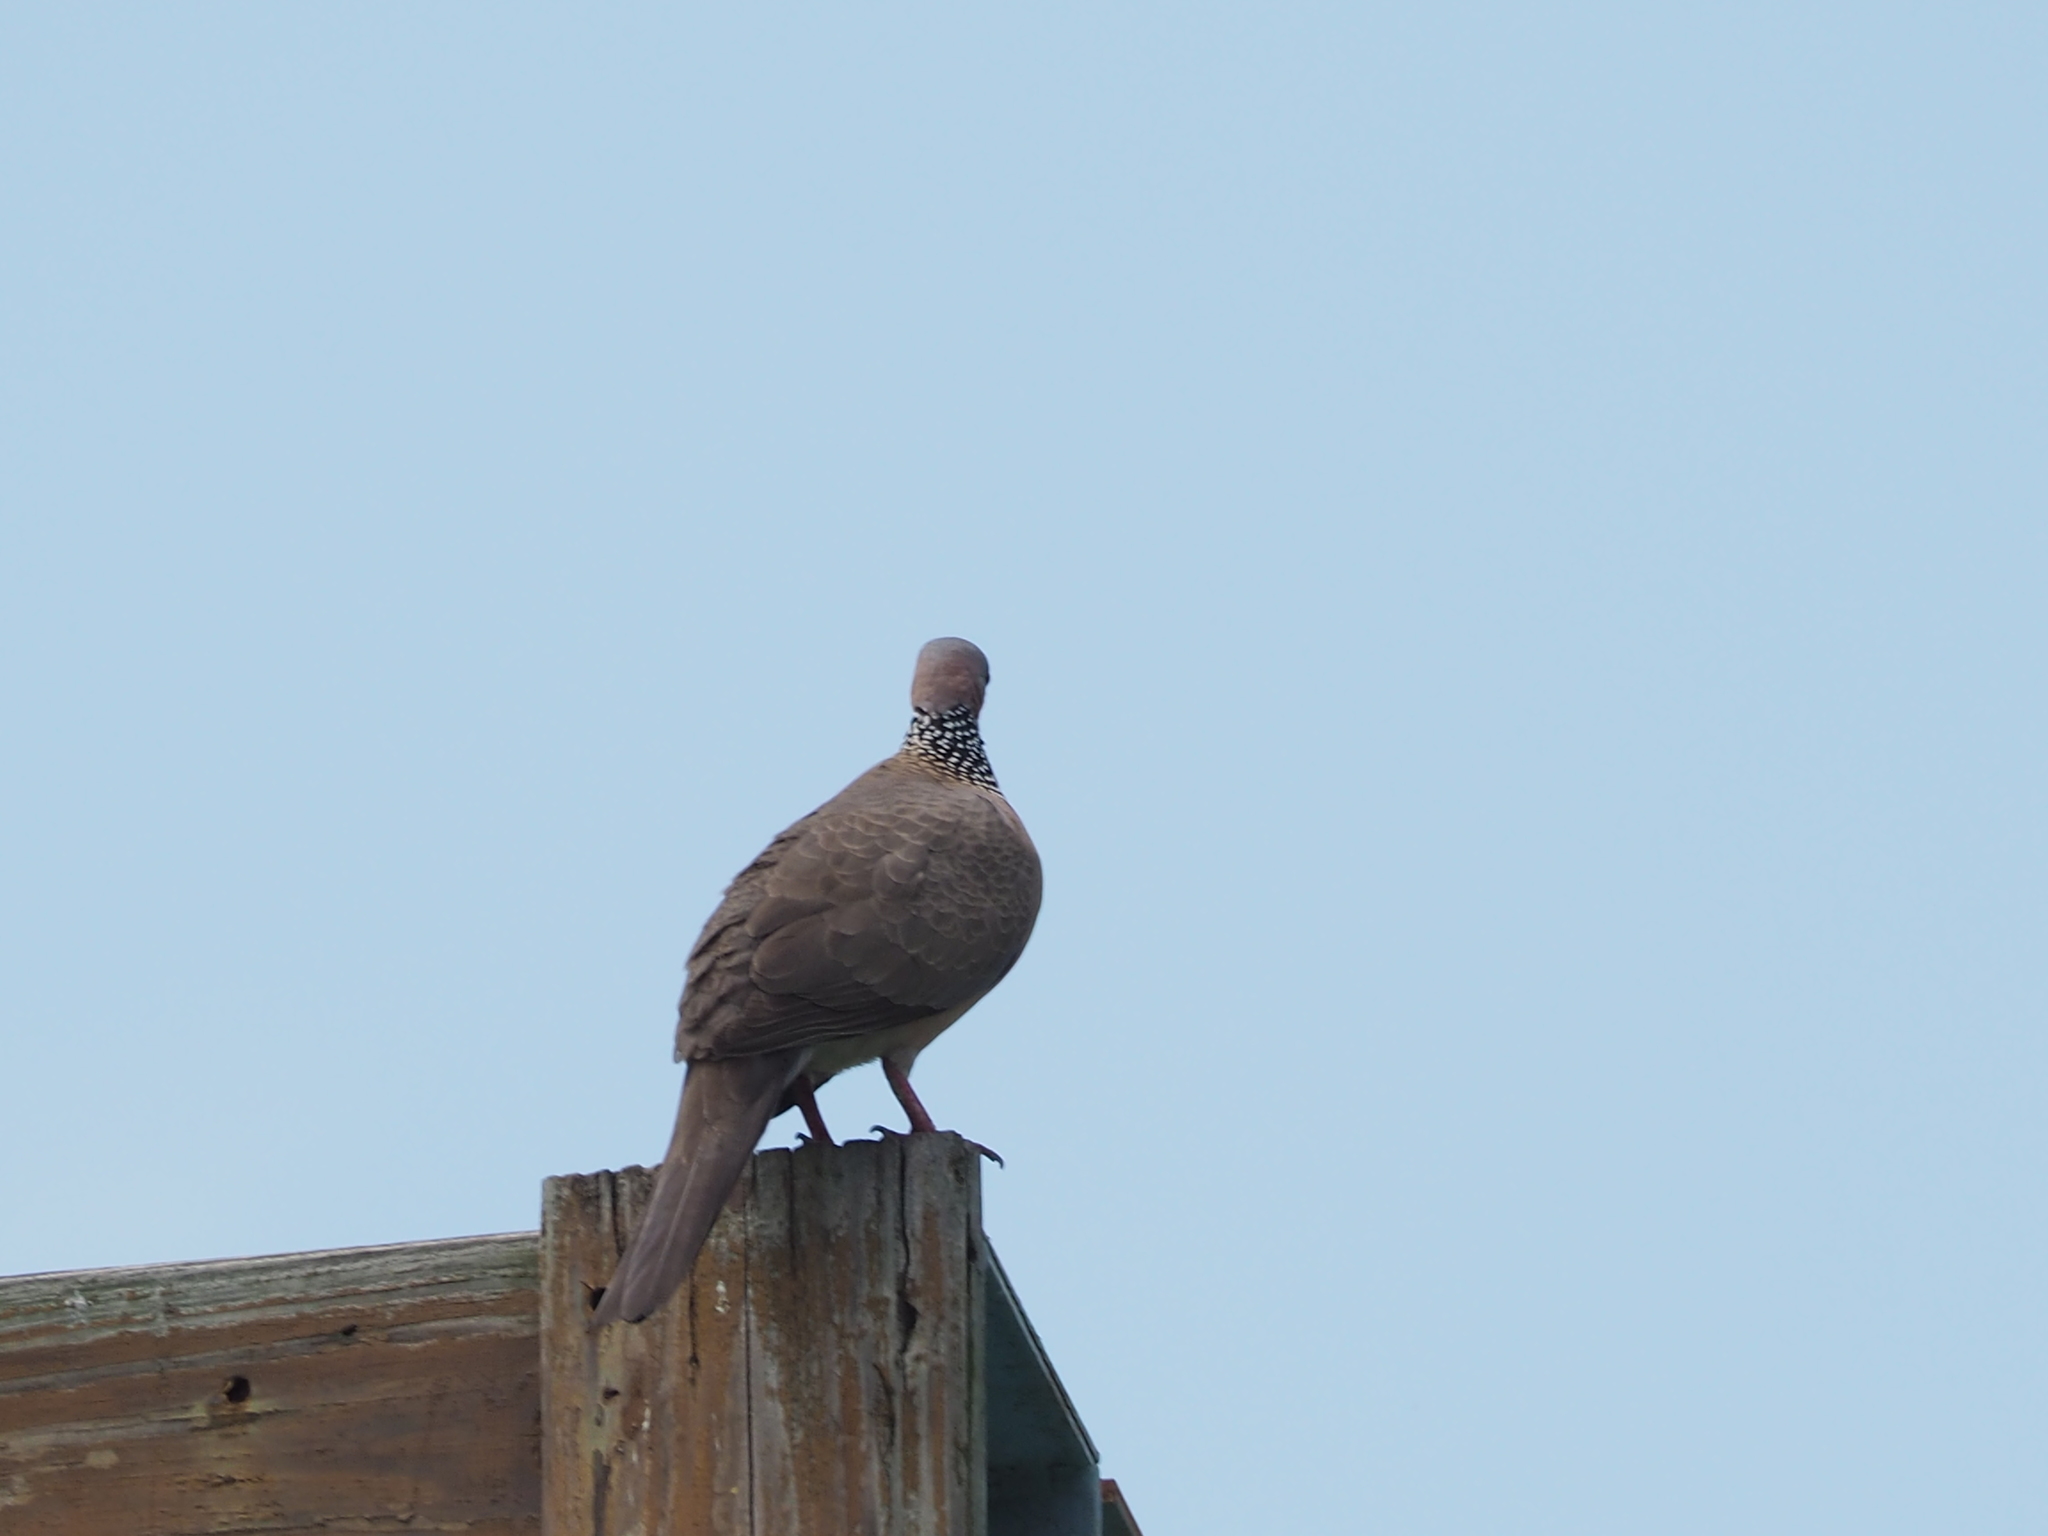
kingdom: Animalia
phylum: Chordata
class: Aves
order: Columbiformes
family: Columbidae
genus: Spilopelia
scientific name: Spilopelia chinensis
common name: Spotted dove
